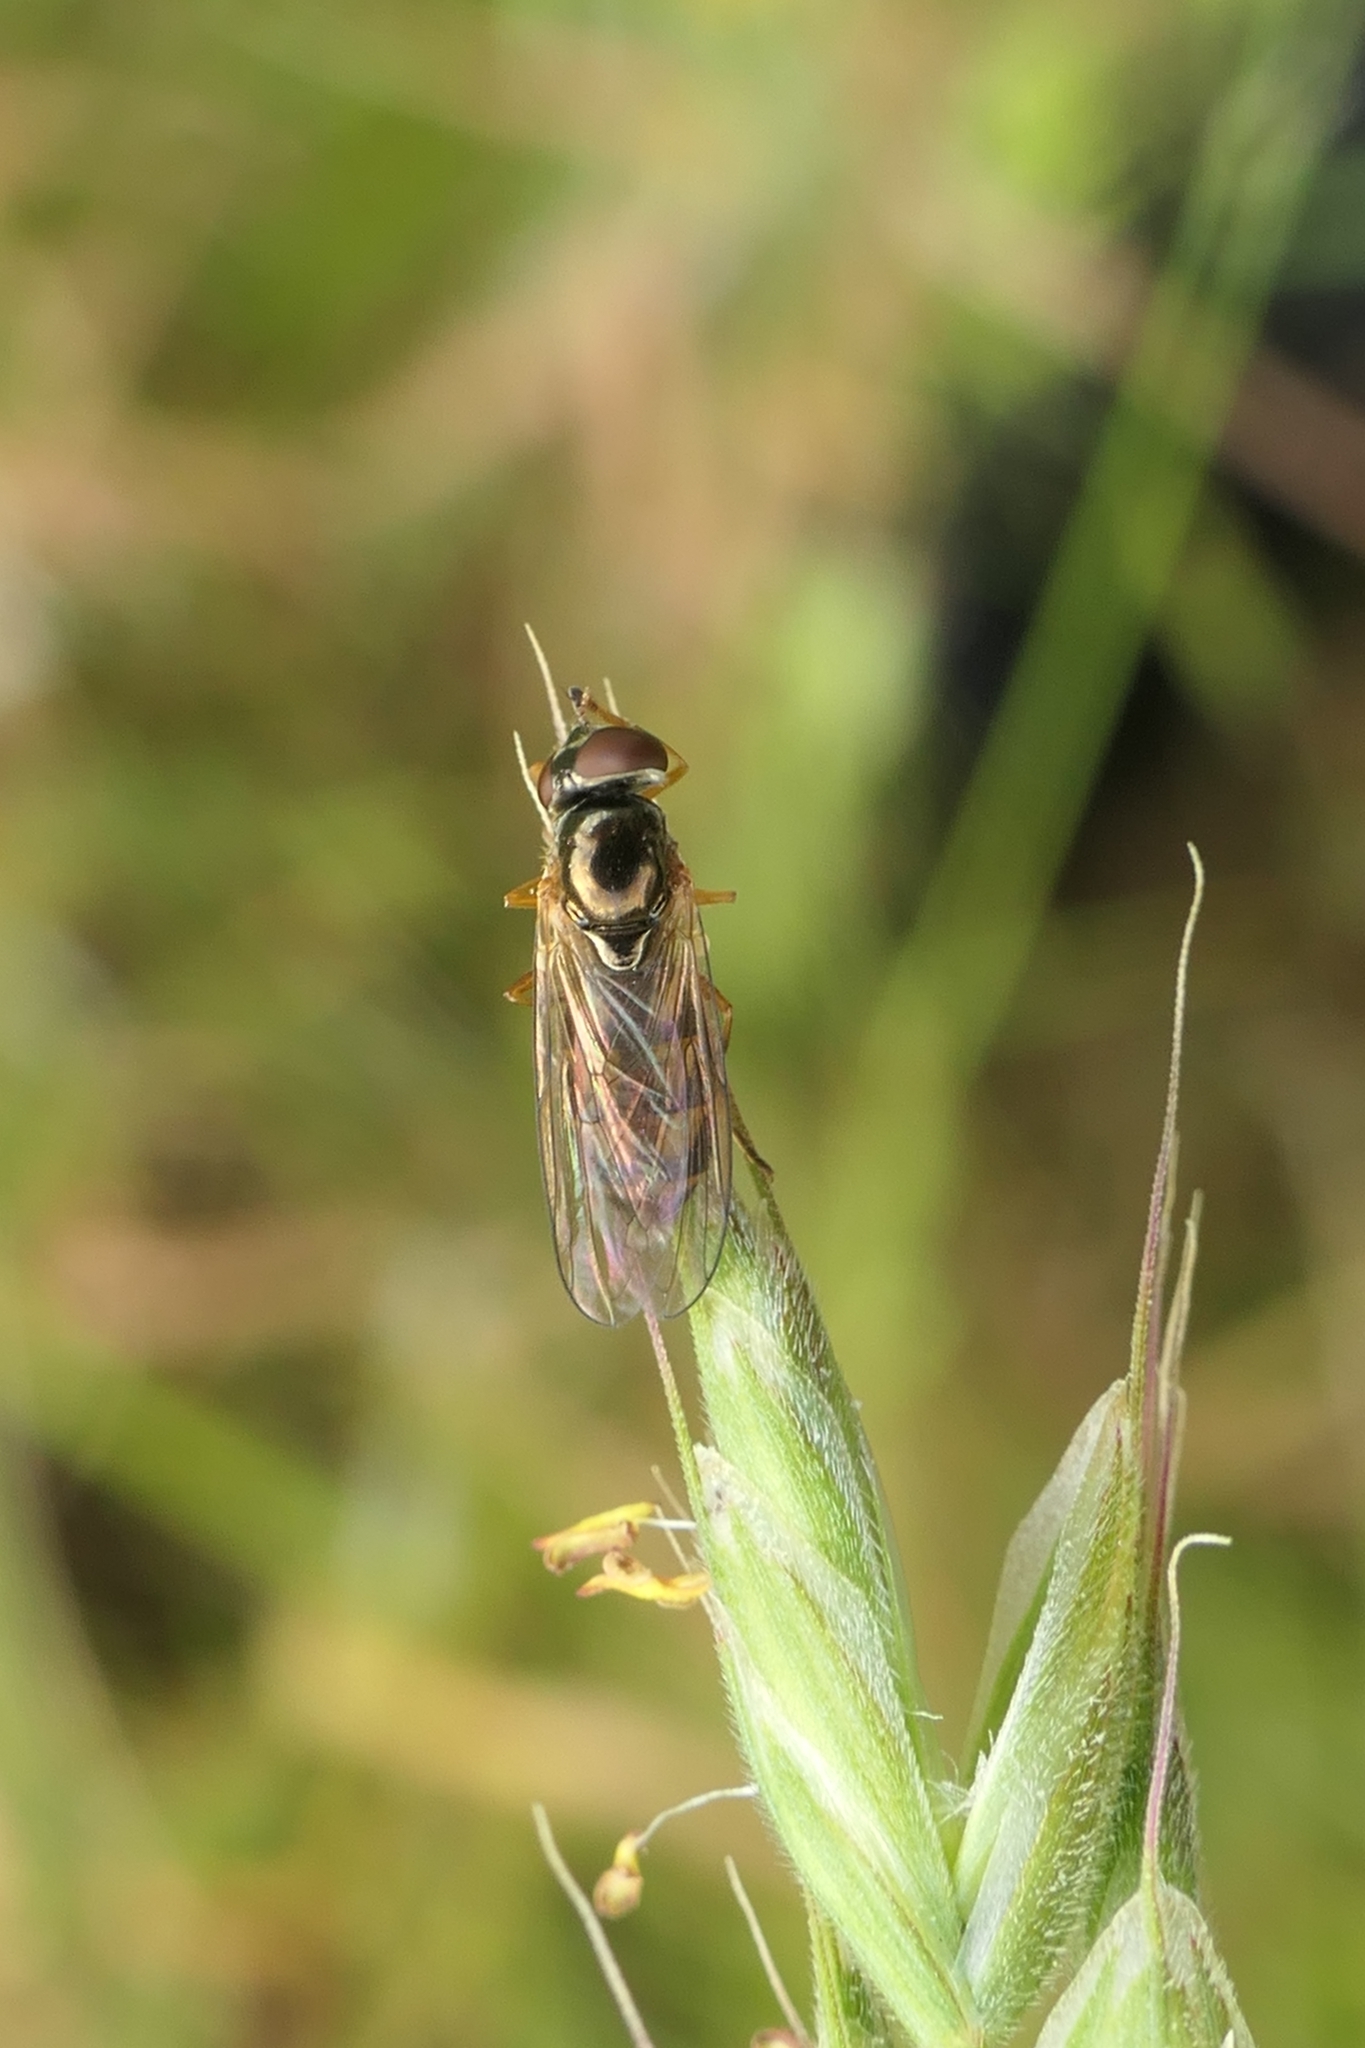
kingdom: Animalia
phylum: Arthropoda
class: Insecta
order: Diptera
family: Syrphidae
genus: Melanostoma
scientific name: Melanostoma fasciatum
